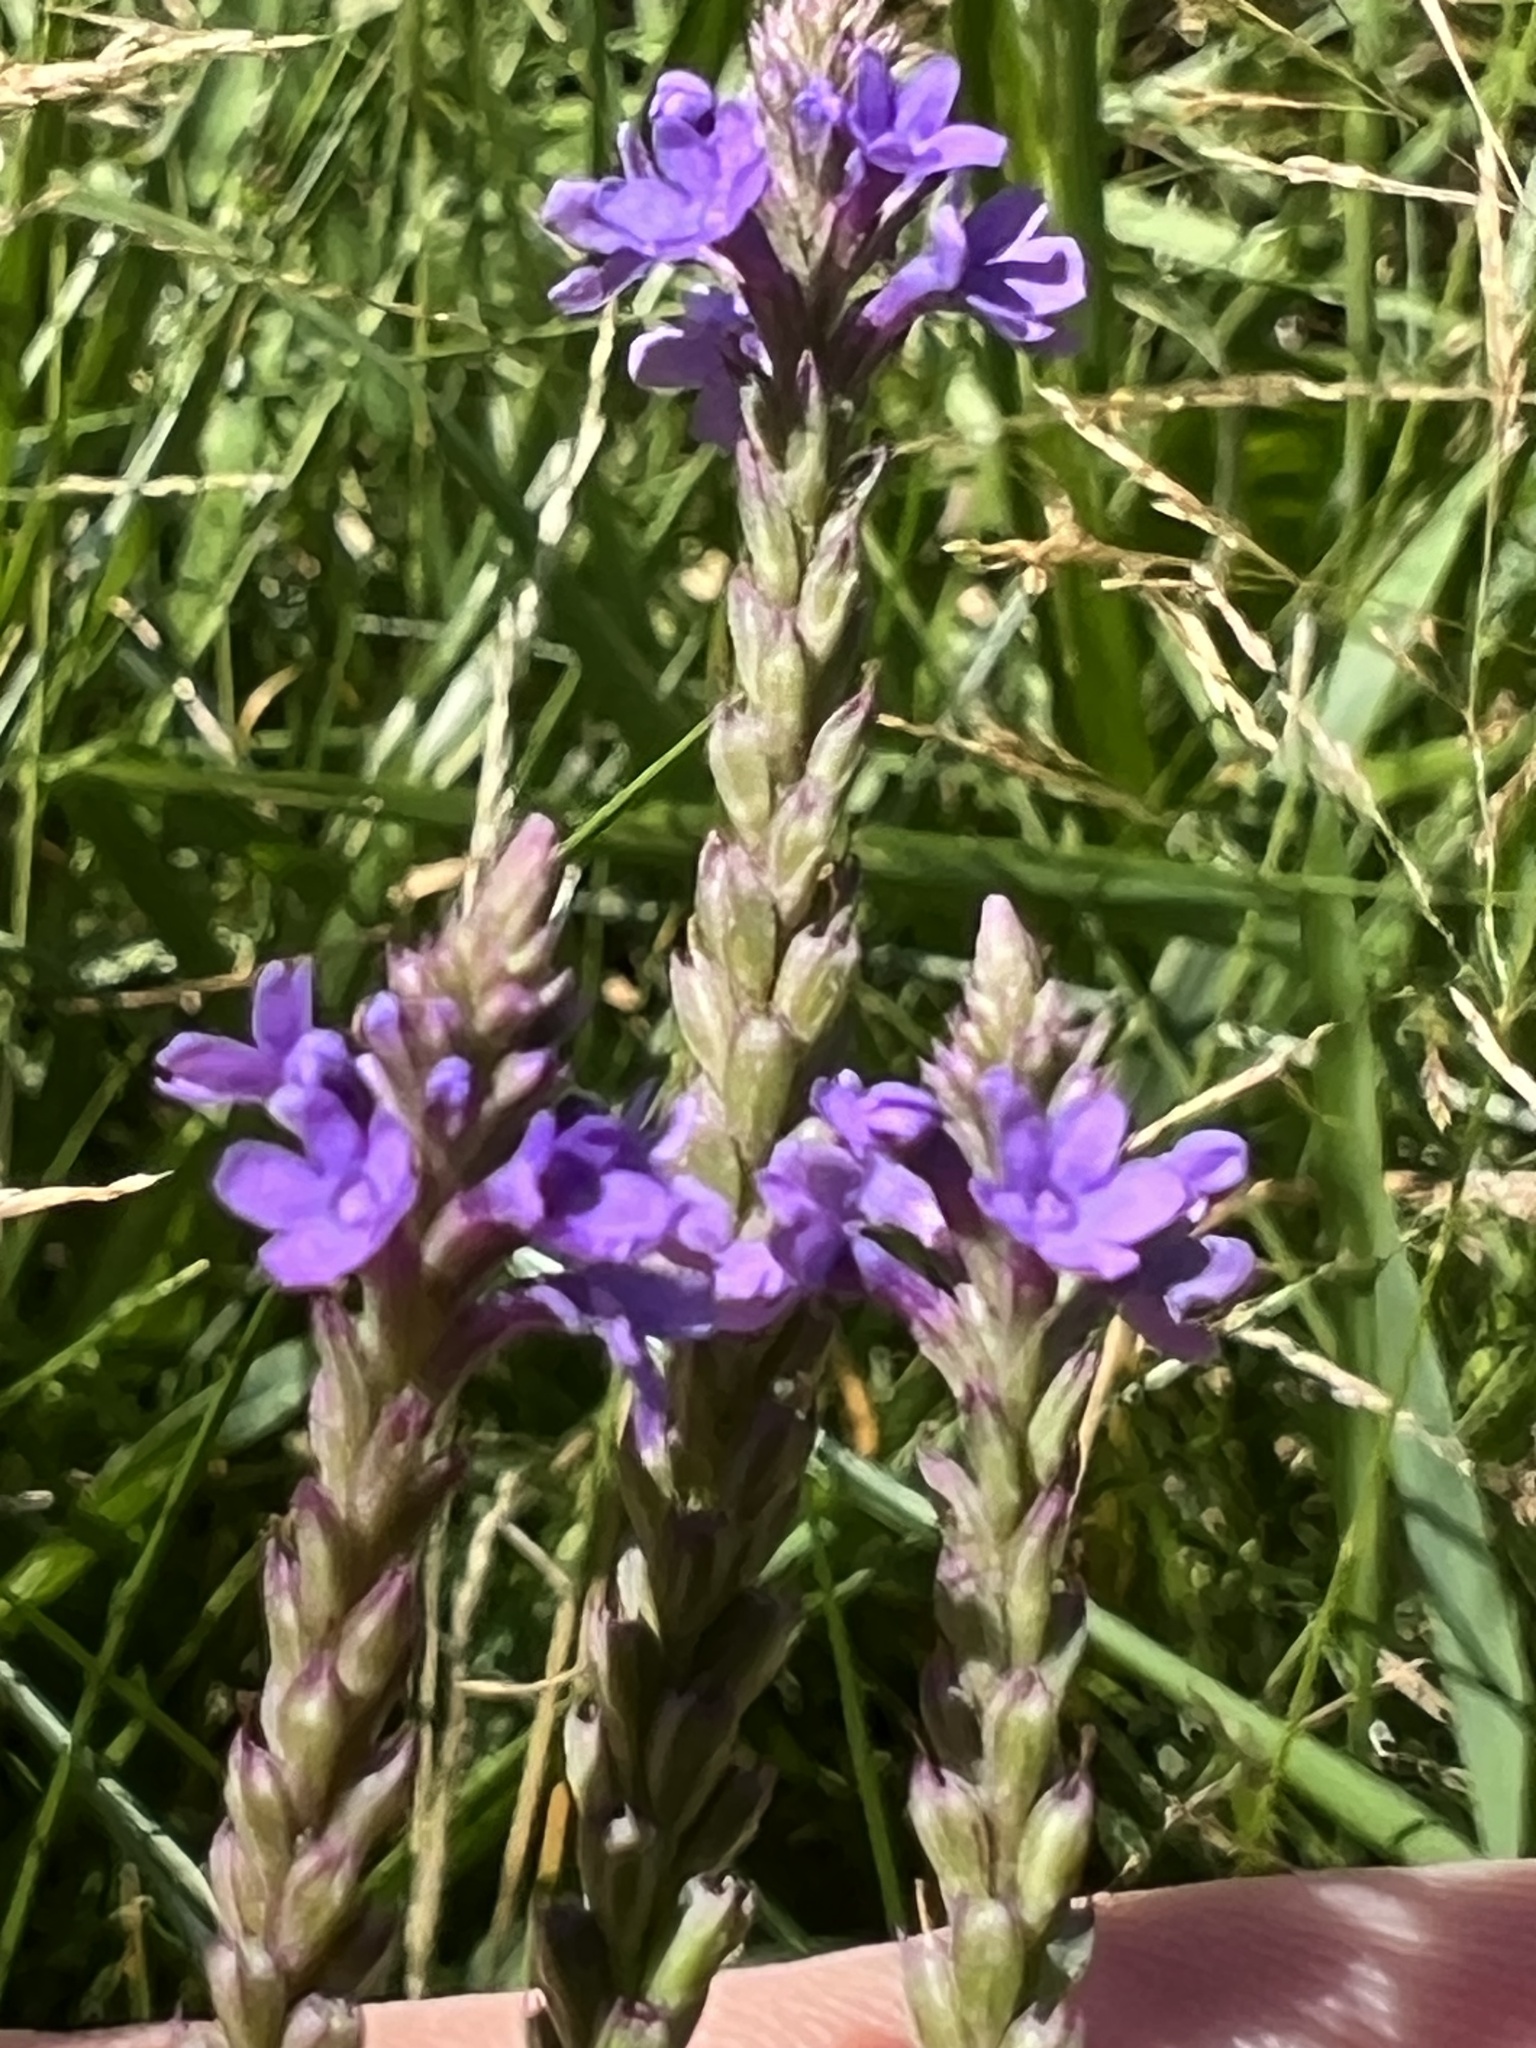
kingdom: Plantae
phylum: Tracheophyta
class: Magnoliopsida
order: Lamiales
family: Verbenaceae
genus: Verbena
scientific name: Verbena hastata
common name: American blue vervain
